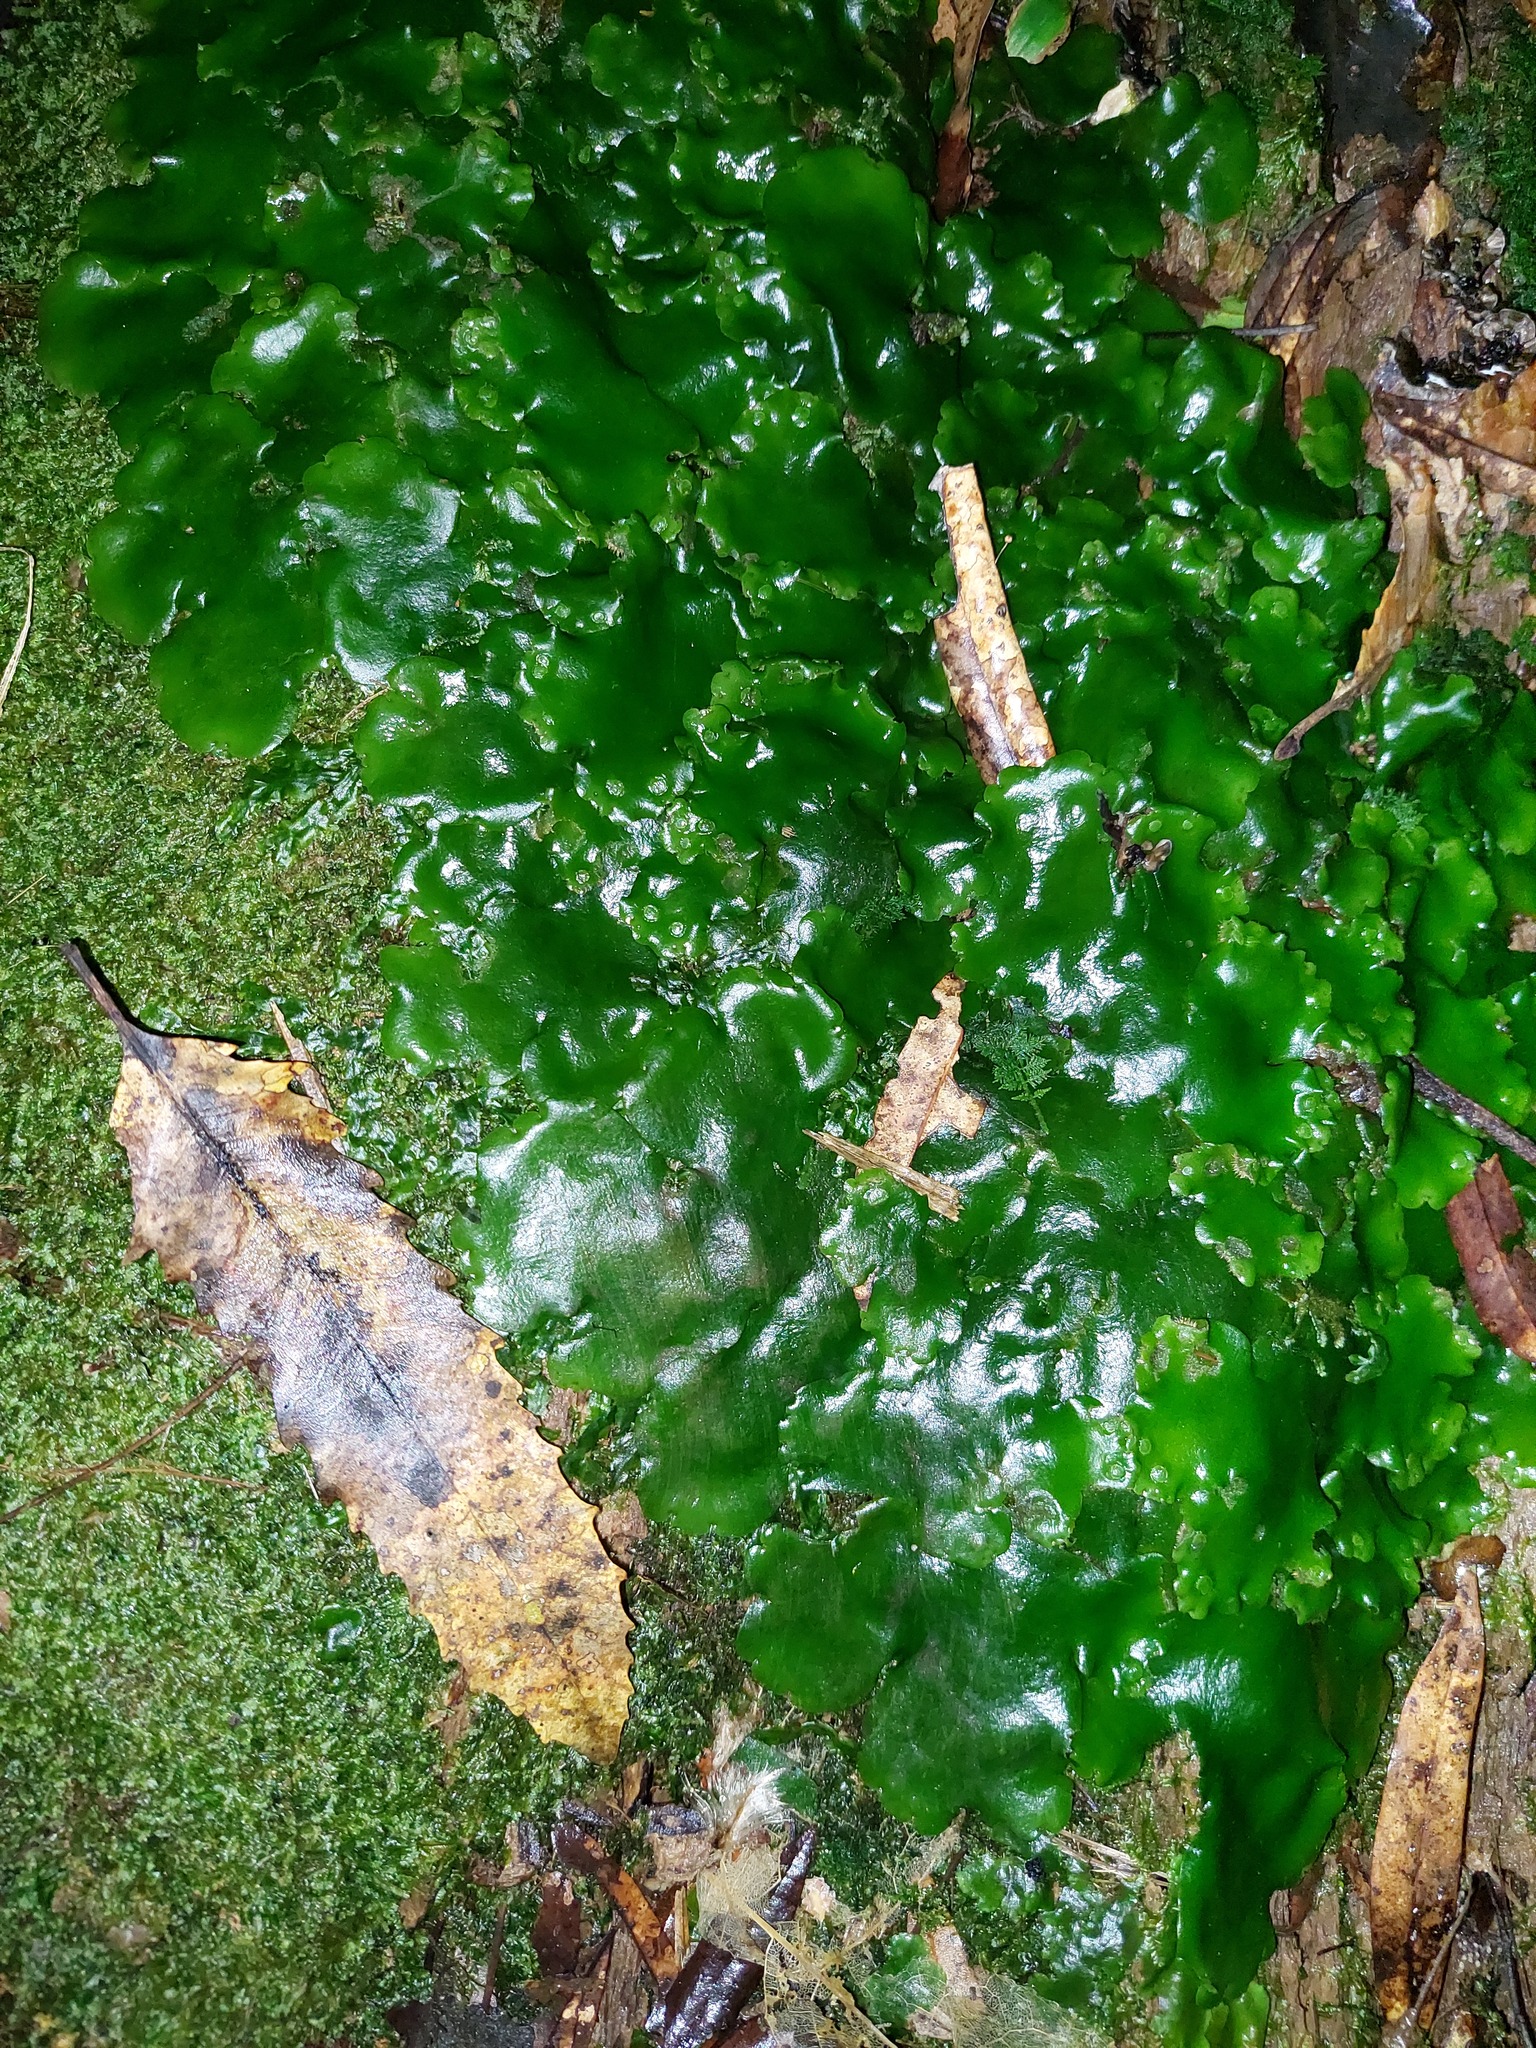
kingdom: Plantae
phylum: Marchantiophyta
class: Marchantiopsida
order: Marchantiales
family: Monocleaceae
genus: Monoclea
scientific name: Monoclea forsteri
